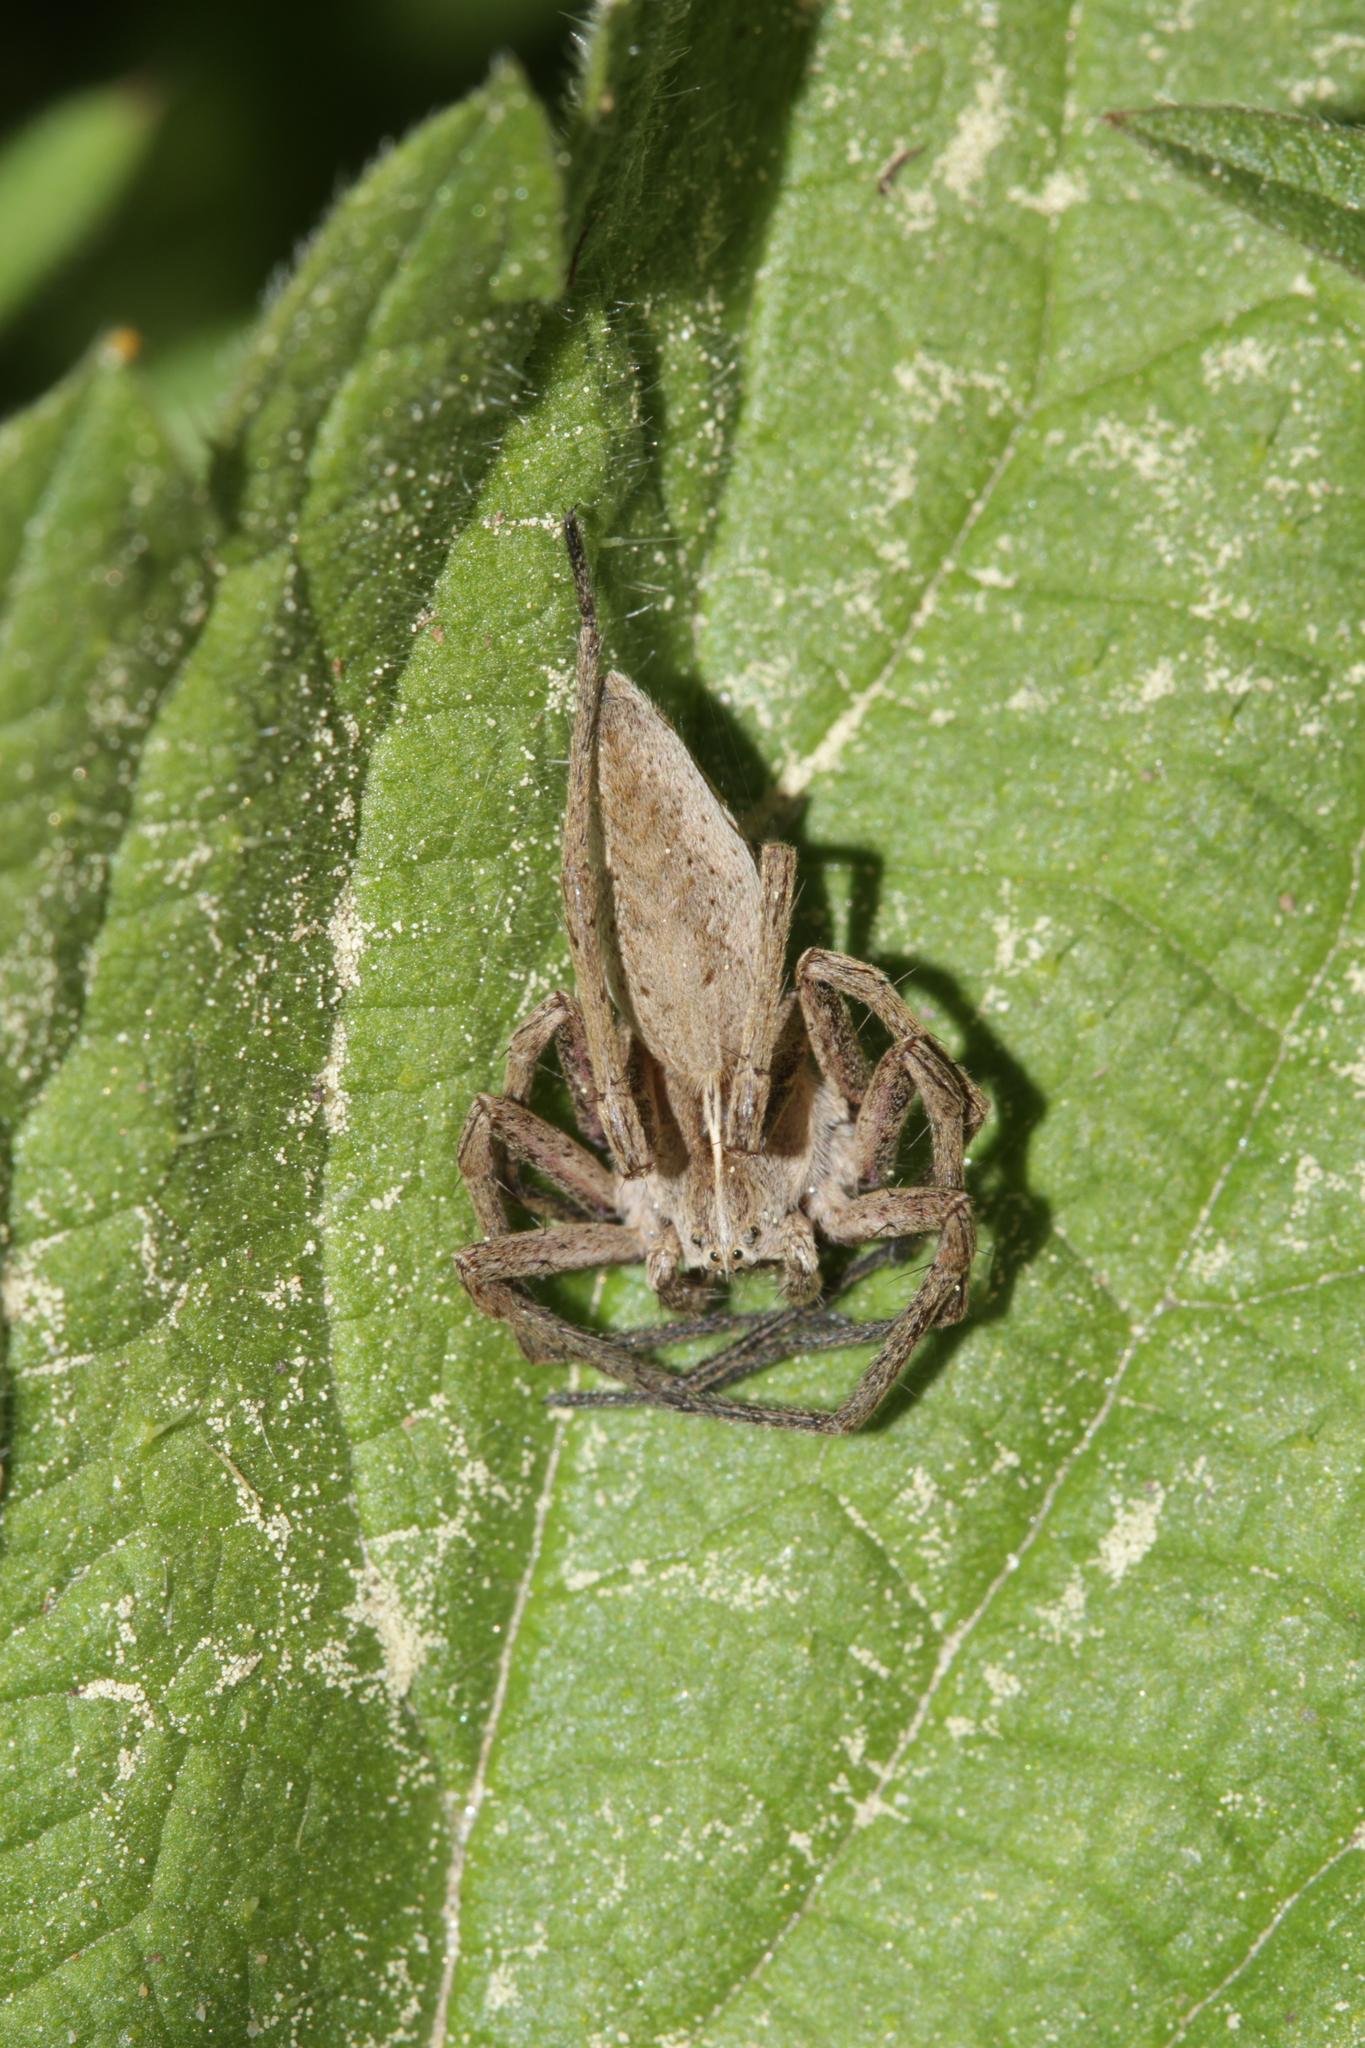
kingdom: Animalia
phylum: Arthropoda
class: Arachnida
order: Araneae
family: Pisauridae
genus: Pisaura
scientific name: Pisaura mirabilis
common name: Tent spider
